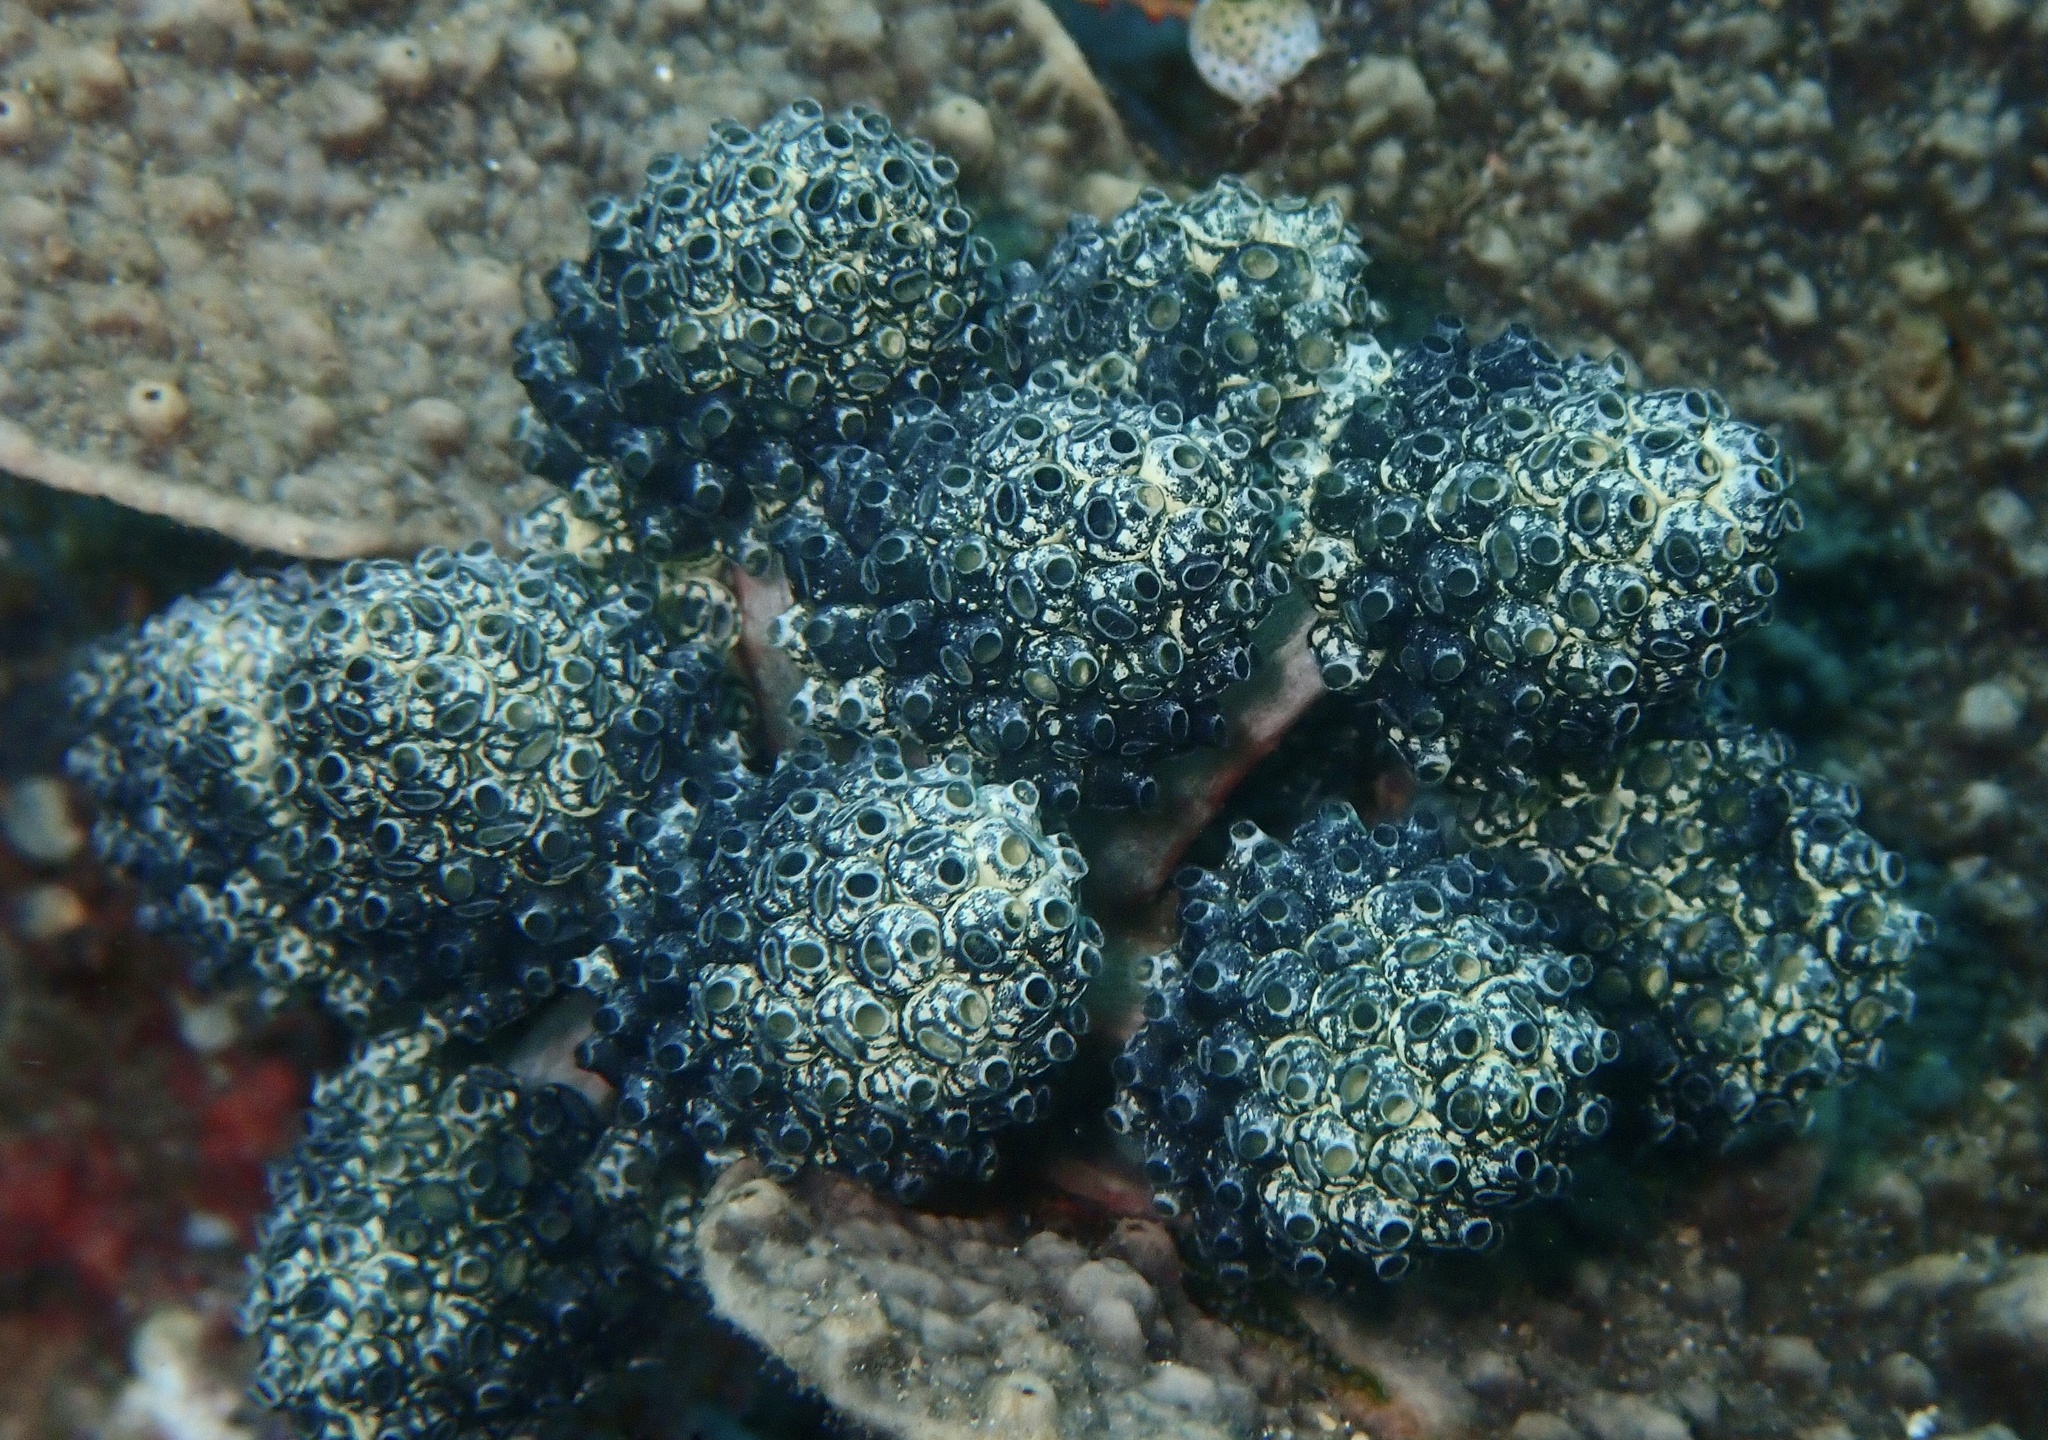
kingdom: Animalia
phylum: Chordata
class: Ascidiacea
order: Aplousobranchia
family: Clavelinidae
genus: Nephtheis
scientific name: Nephtheis fascicularis
